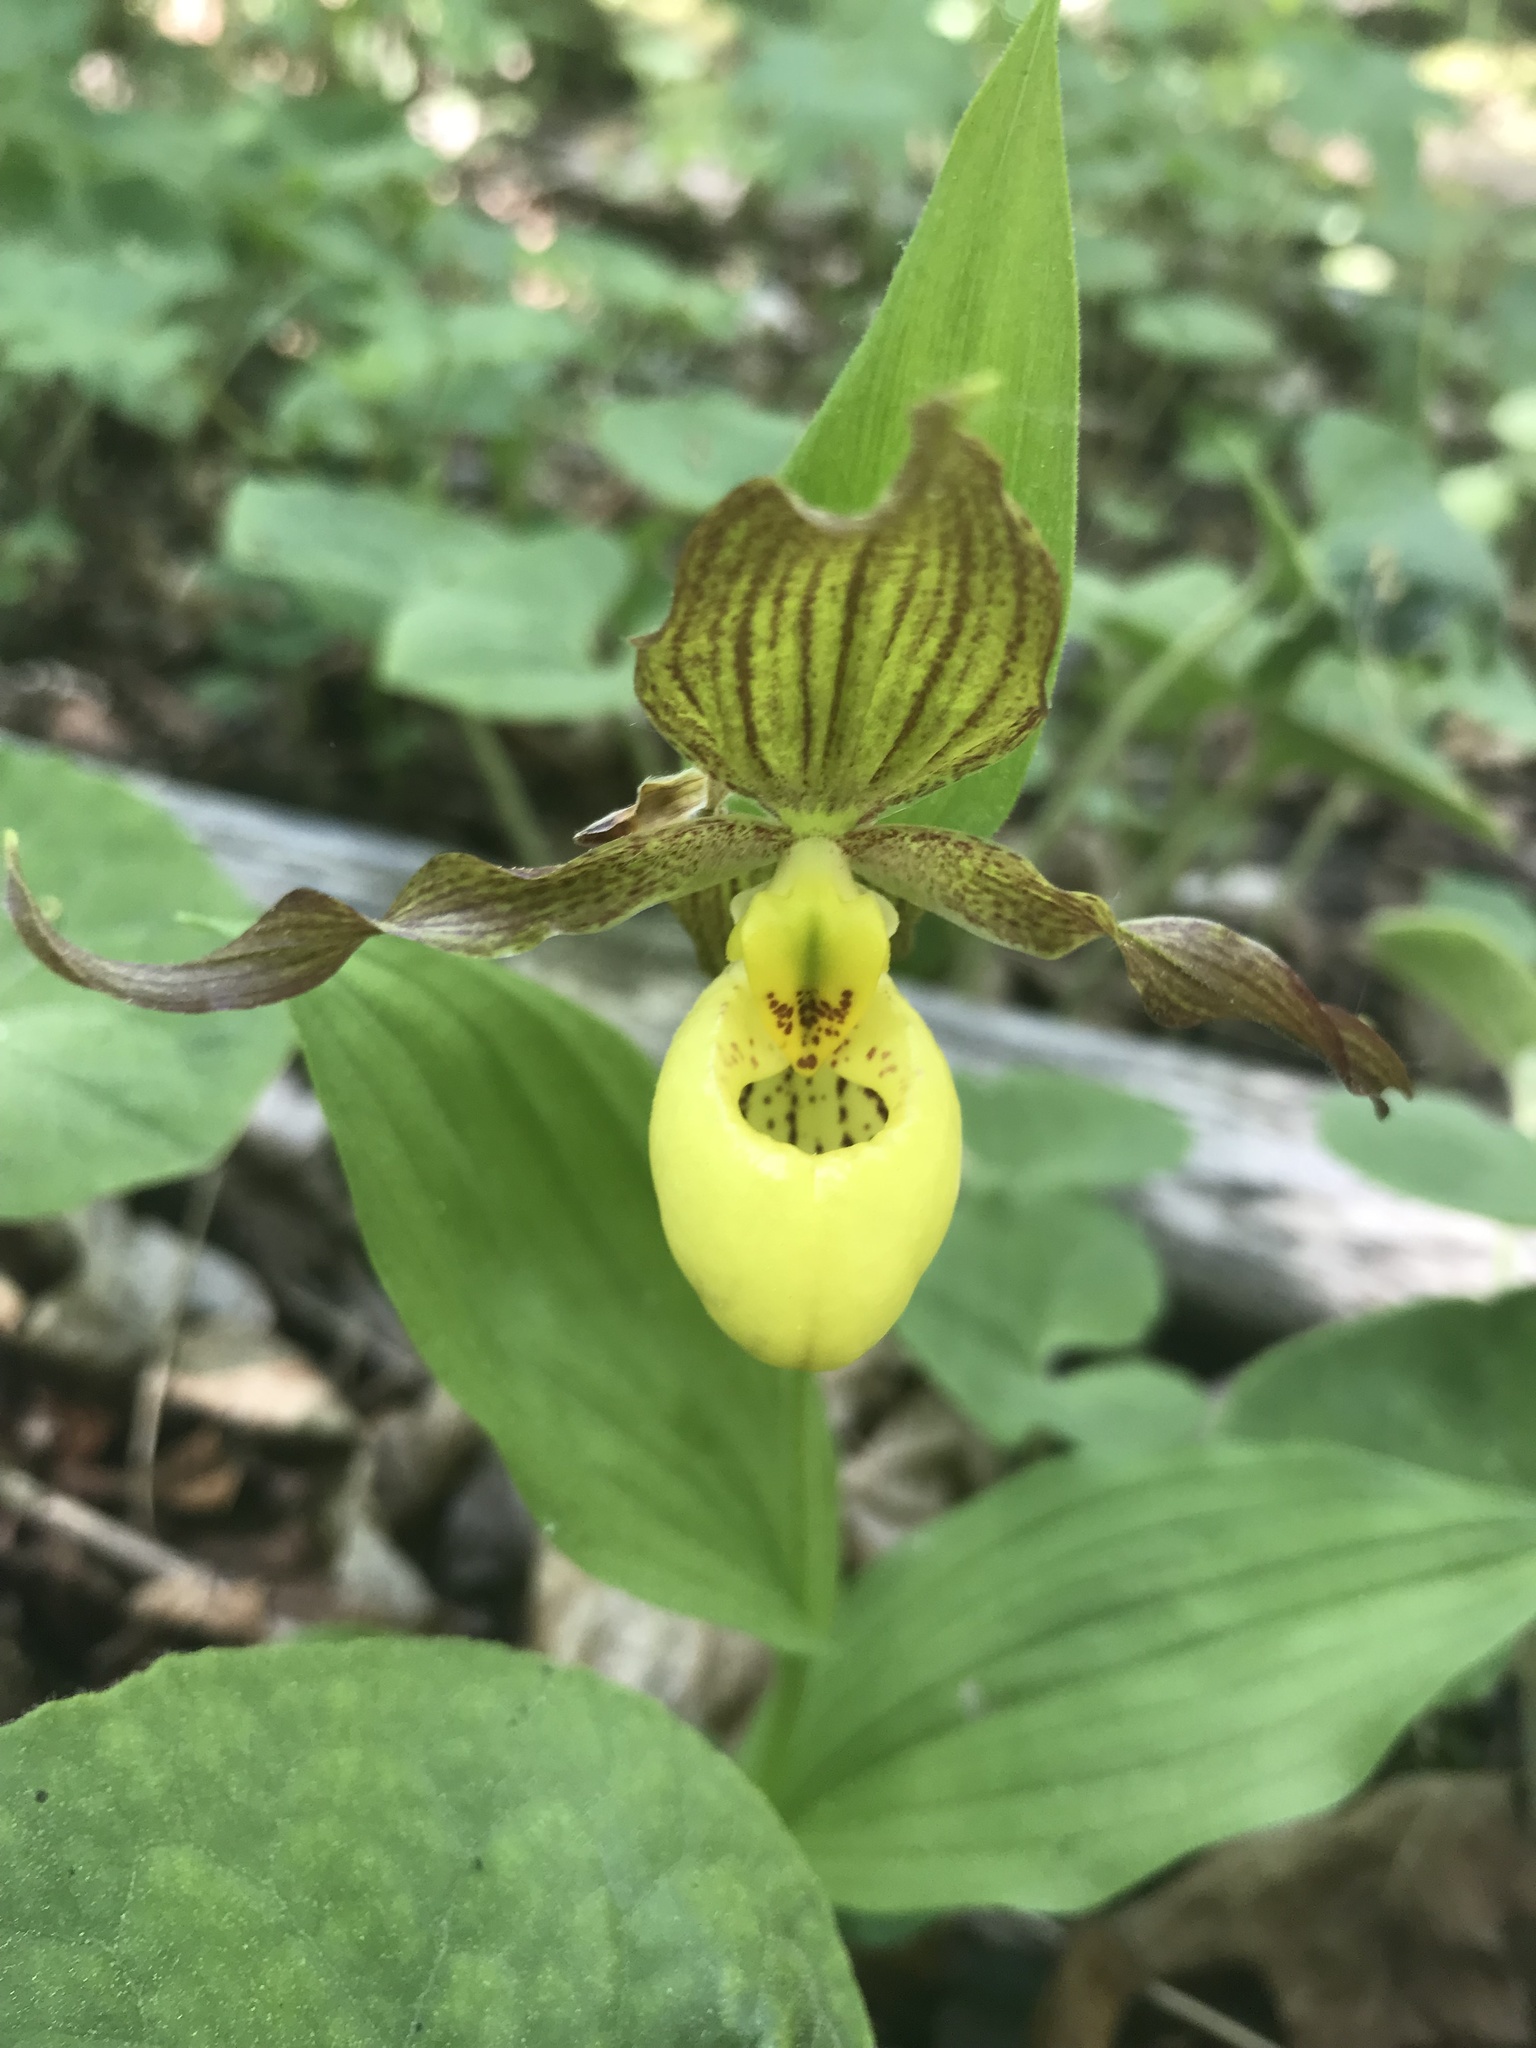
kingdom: Plantae
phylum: Tracheophyta
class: Liliopsida
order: Asparagales
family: Orchidaceae
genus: Cypripedium
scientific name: Cypripedium parviflorum
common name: American yellow lady's-slipper
